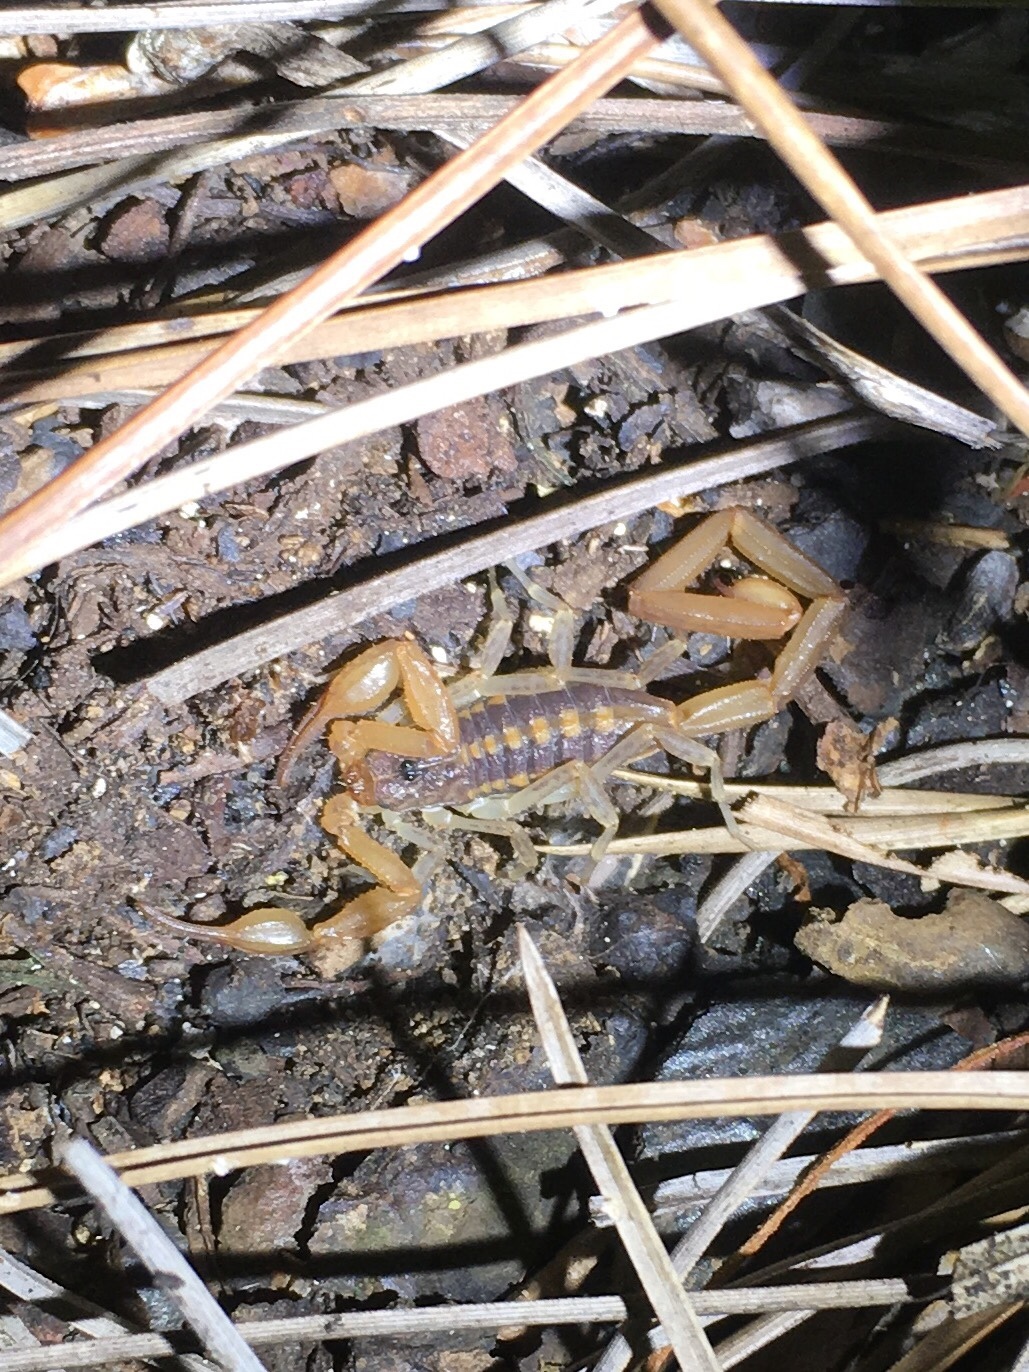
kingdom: Animalia
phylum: Arthropoda
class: Arachnida
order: Scorpiones
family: Buthidae
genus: Centruroides
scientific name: Centruroides guanensis
